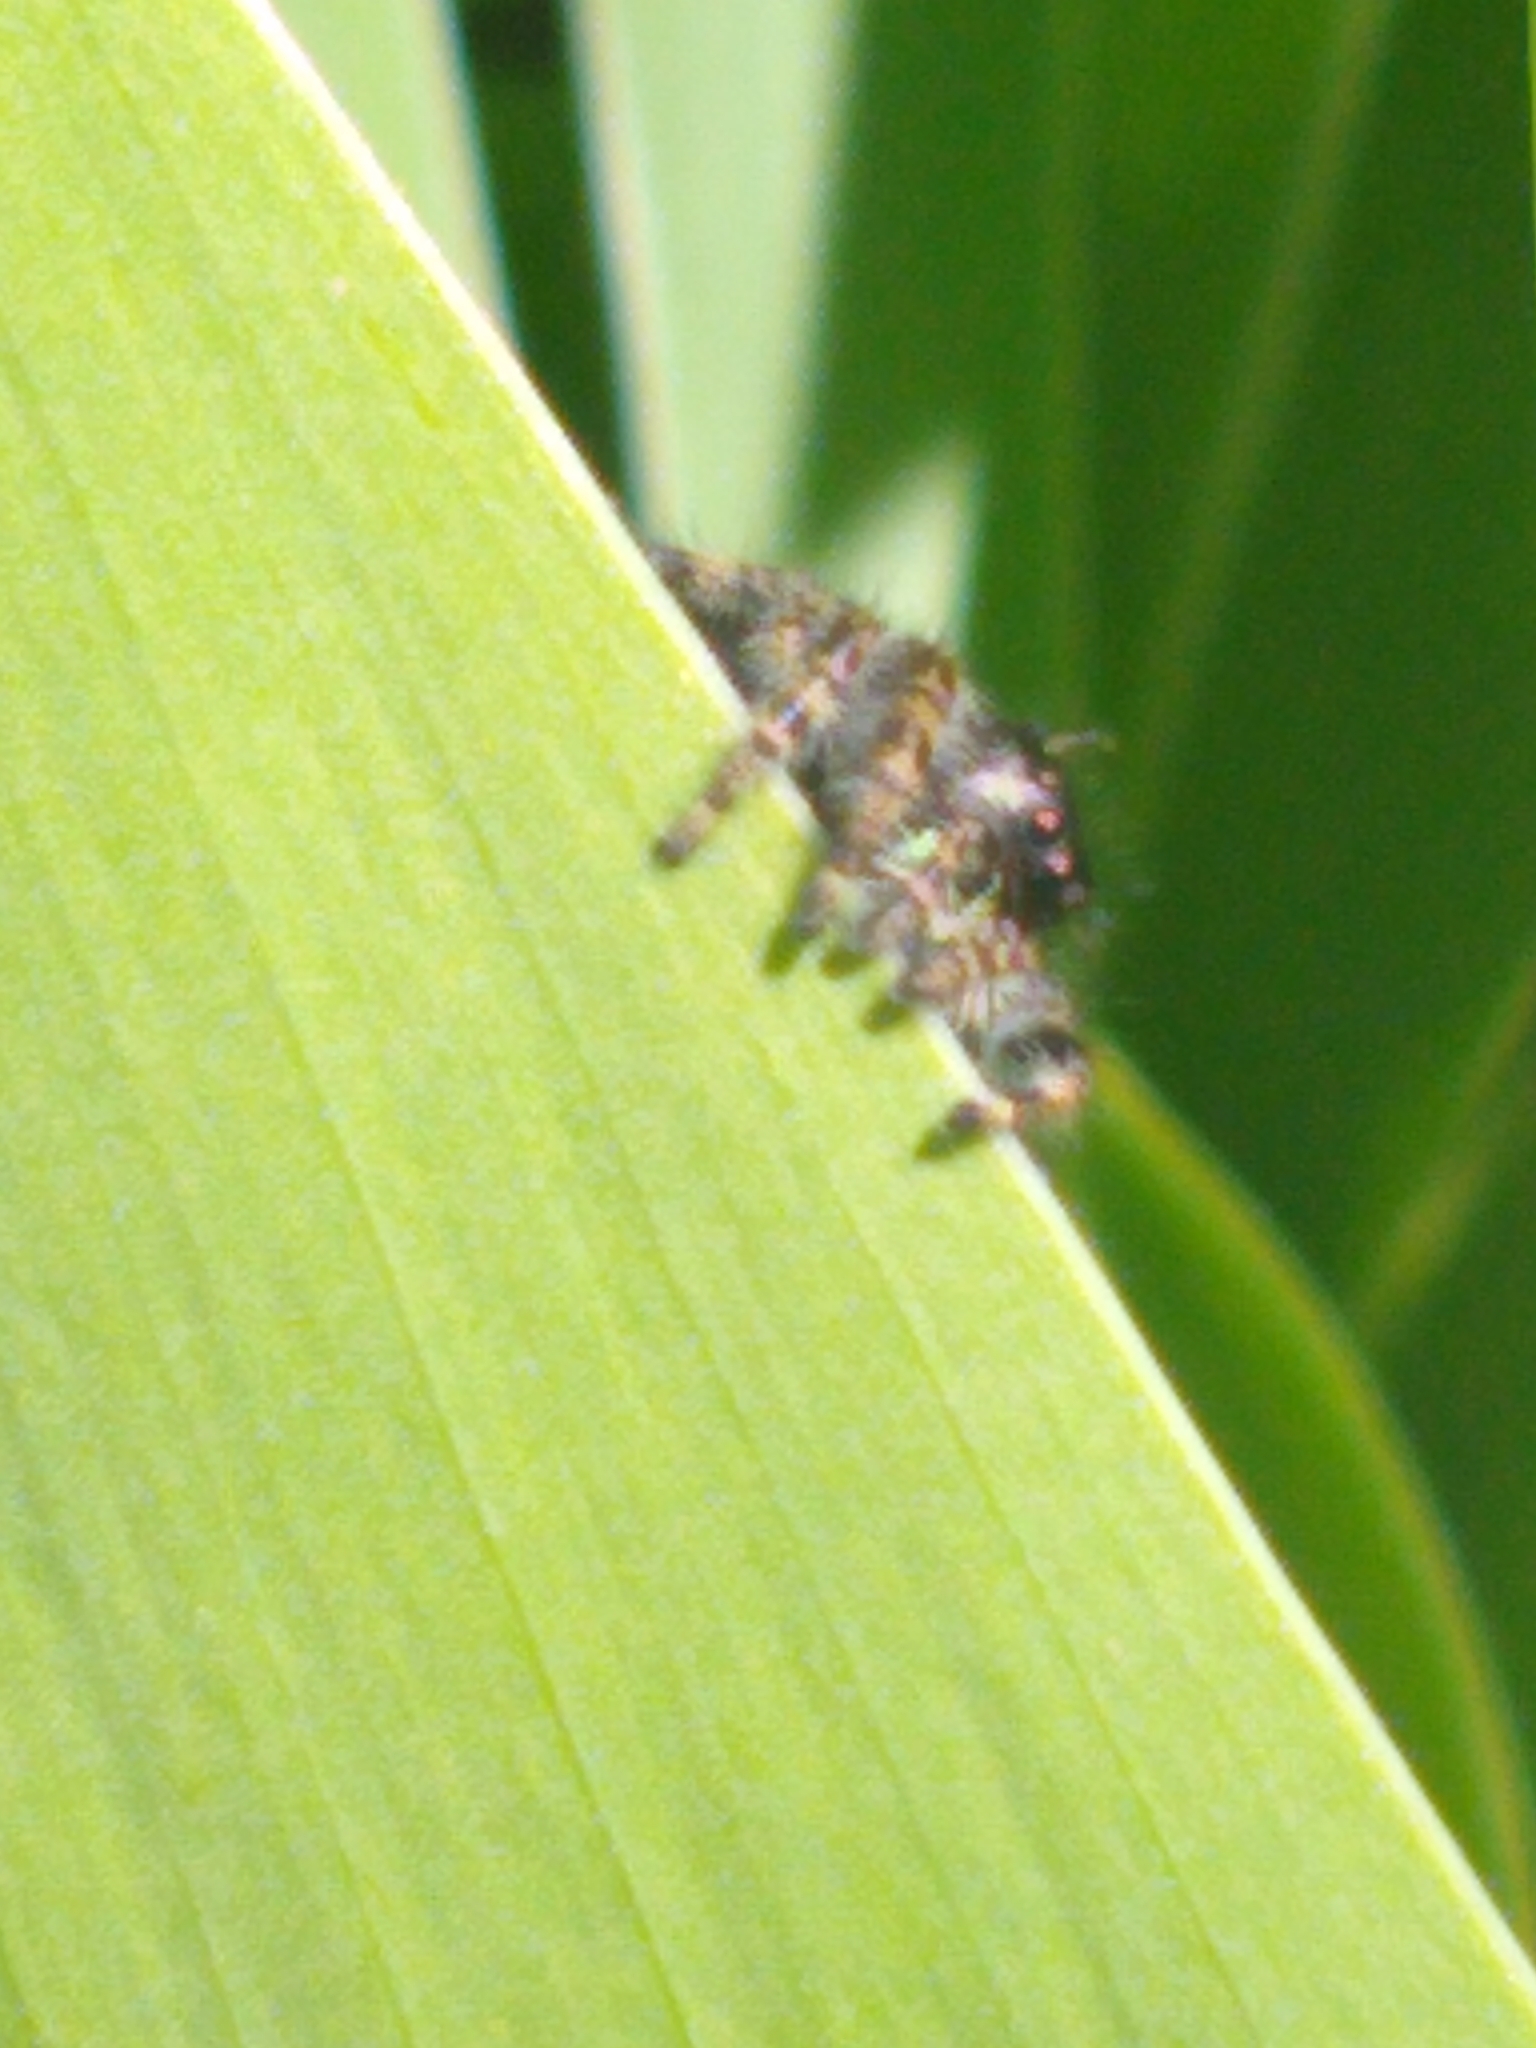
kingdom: Animalia
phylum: Arthropoda
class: Arachnida
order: Araneae
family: Salticidae
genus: Phidippus
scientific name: Phidippus audax
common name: Bold jumper
